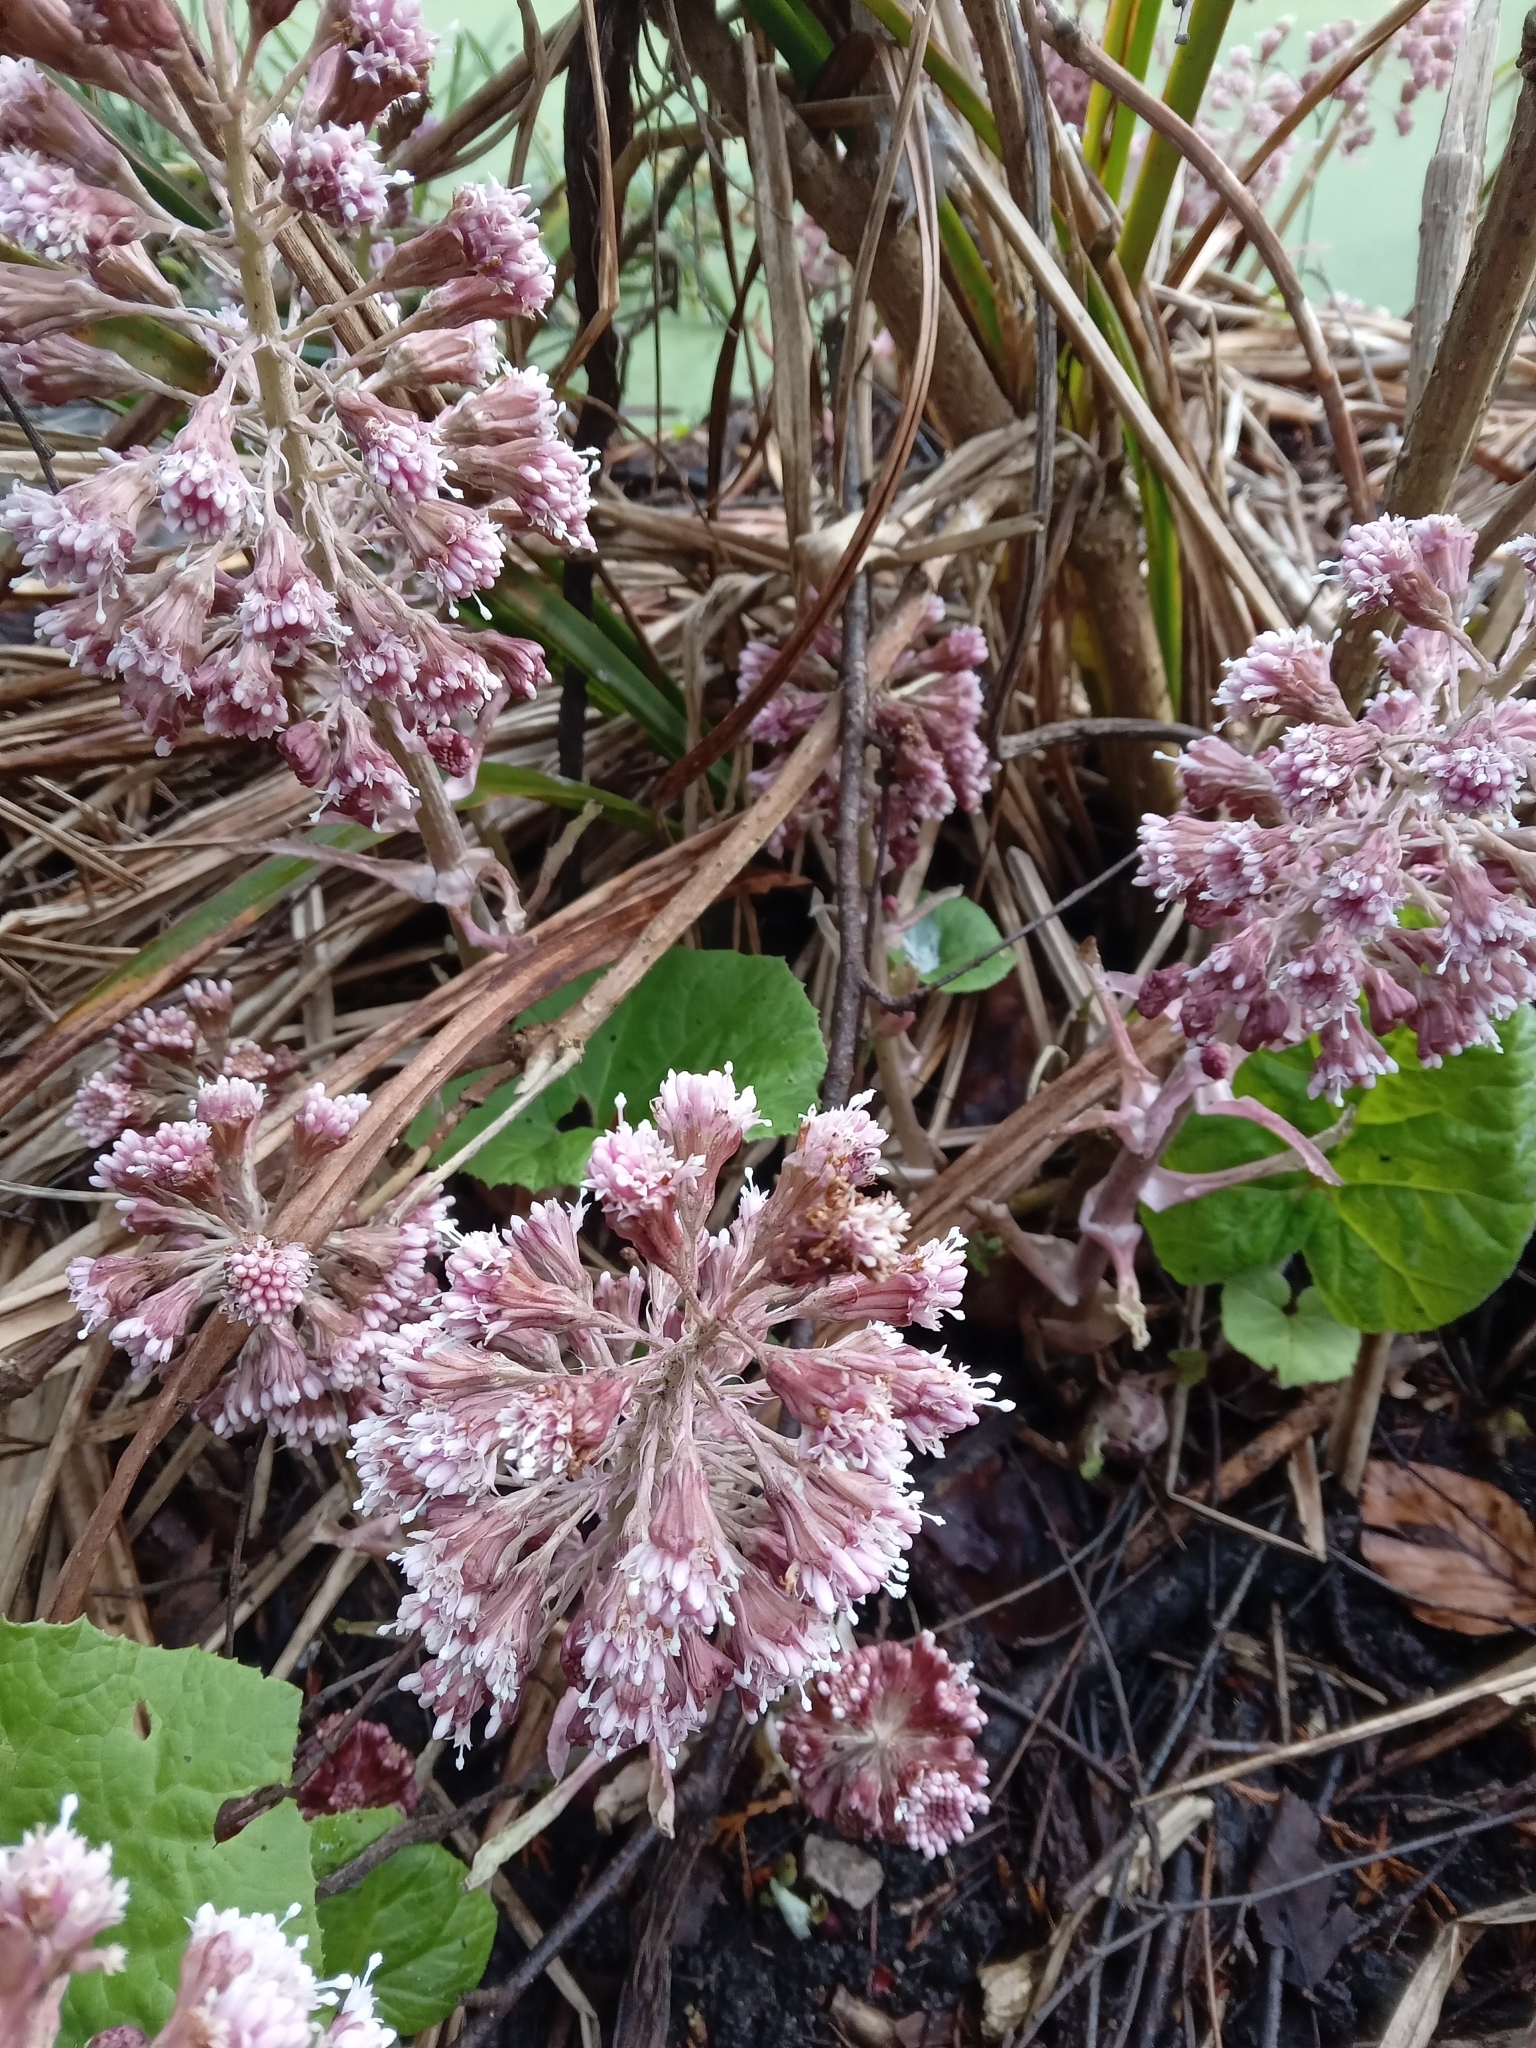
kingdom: Plantae
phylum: Tracheophyta
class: Magnoliopsida
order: Asterales
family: Asteraceae
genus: Petasites
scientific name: Petasites hybridus
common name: Butterbur
